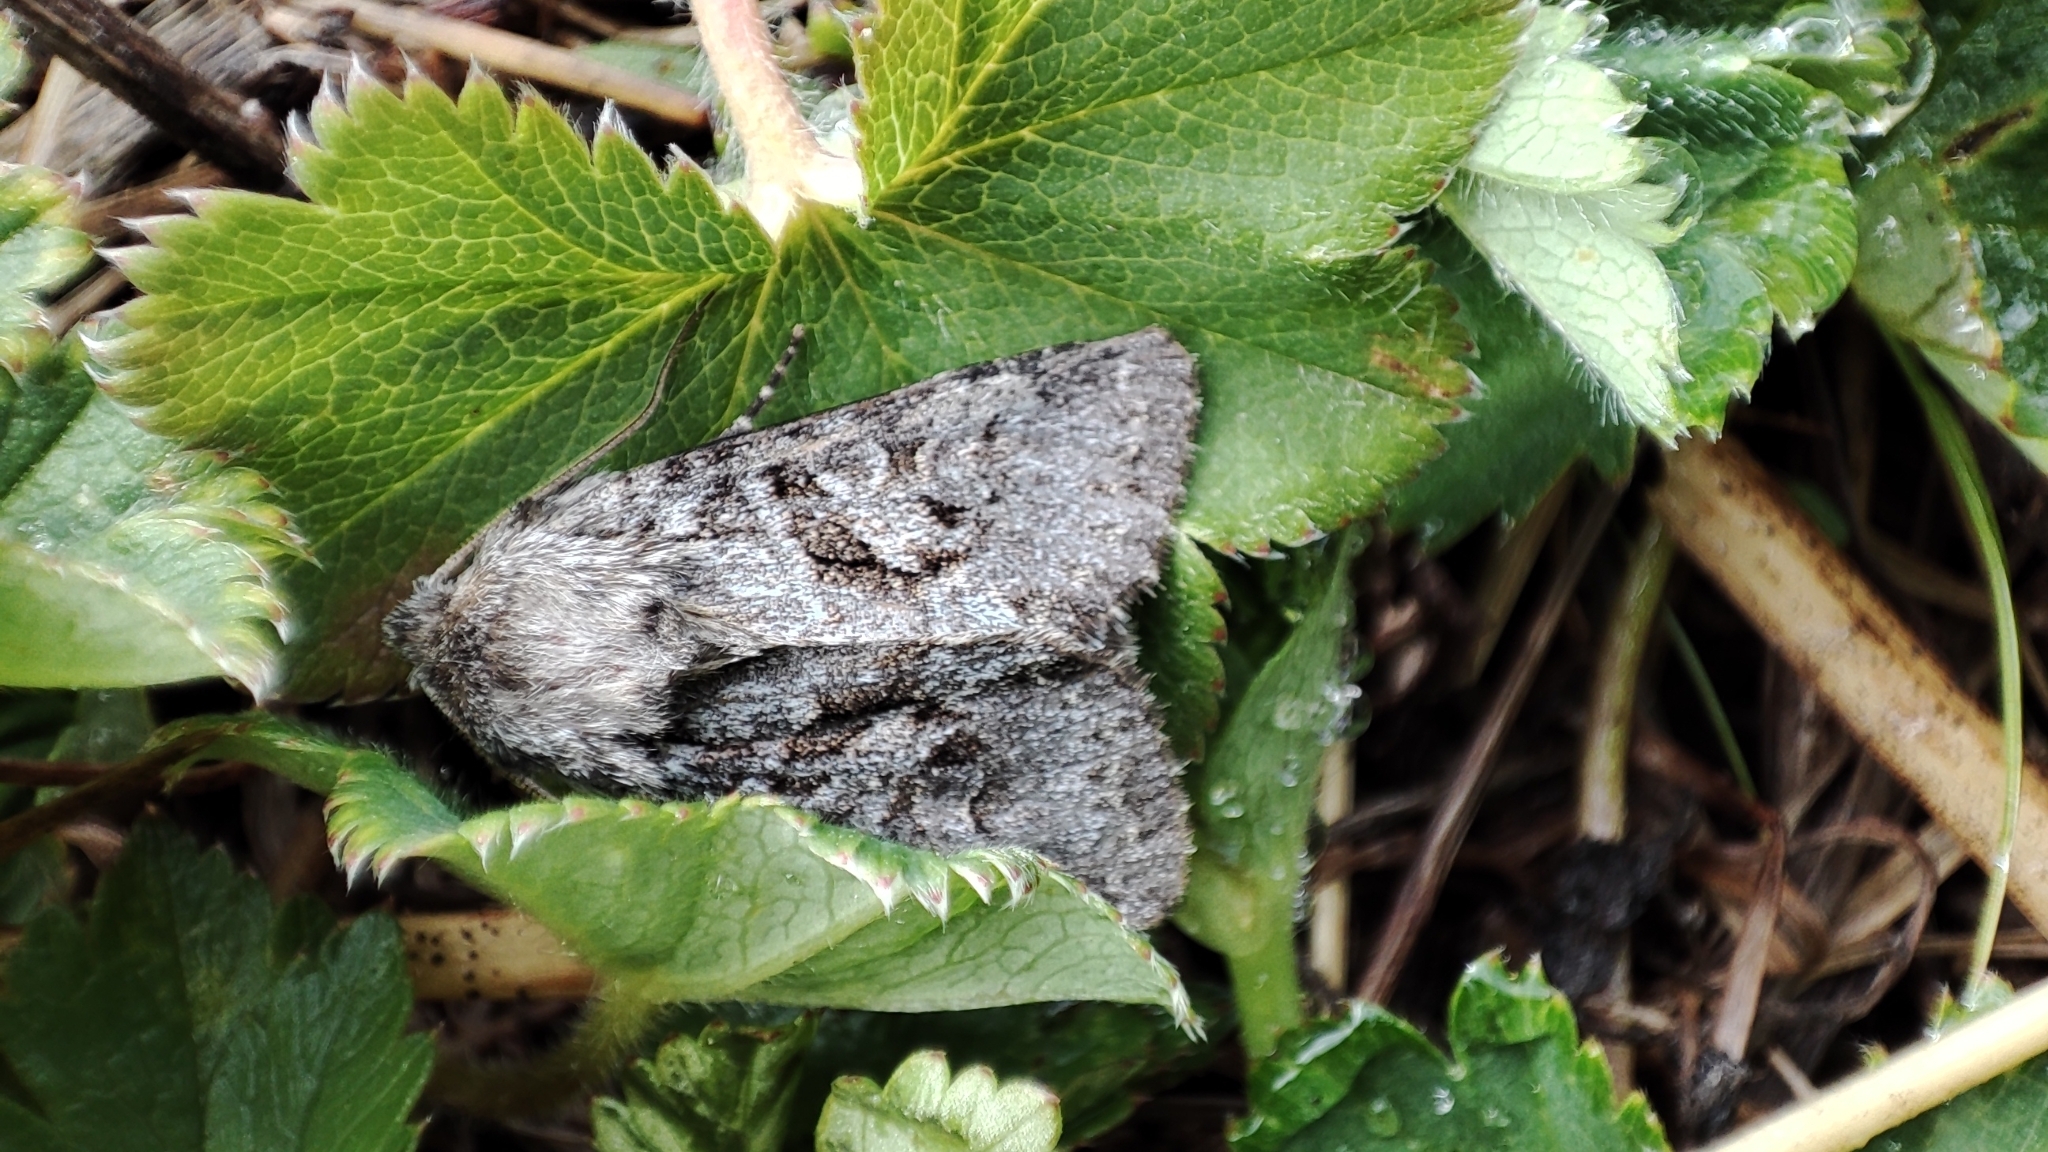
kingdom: Animalia
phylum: Arthropoda
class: Insecta
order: Lepidoptera
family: Noctuidae
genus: Hada
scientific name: Hada plebeja
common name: Shears
